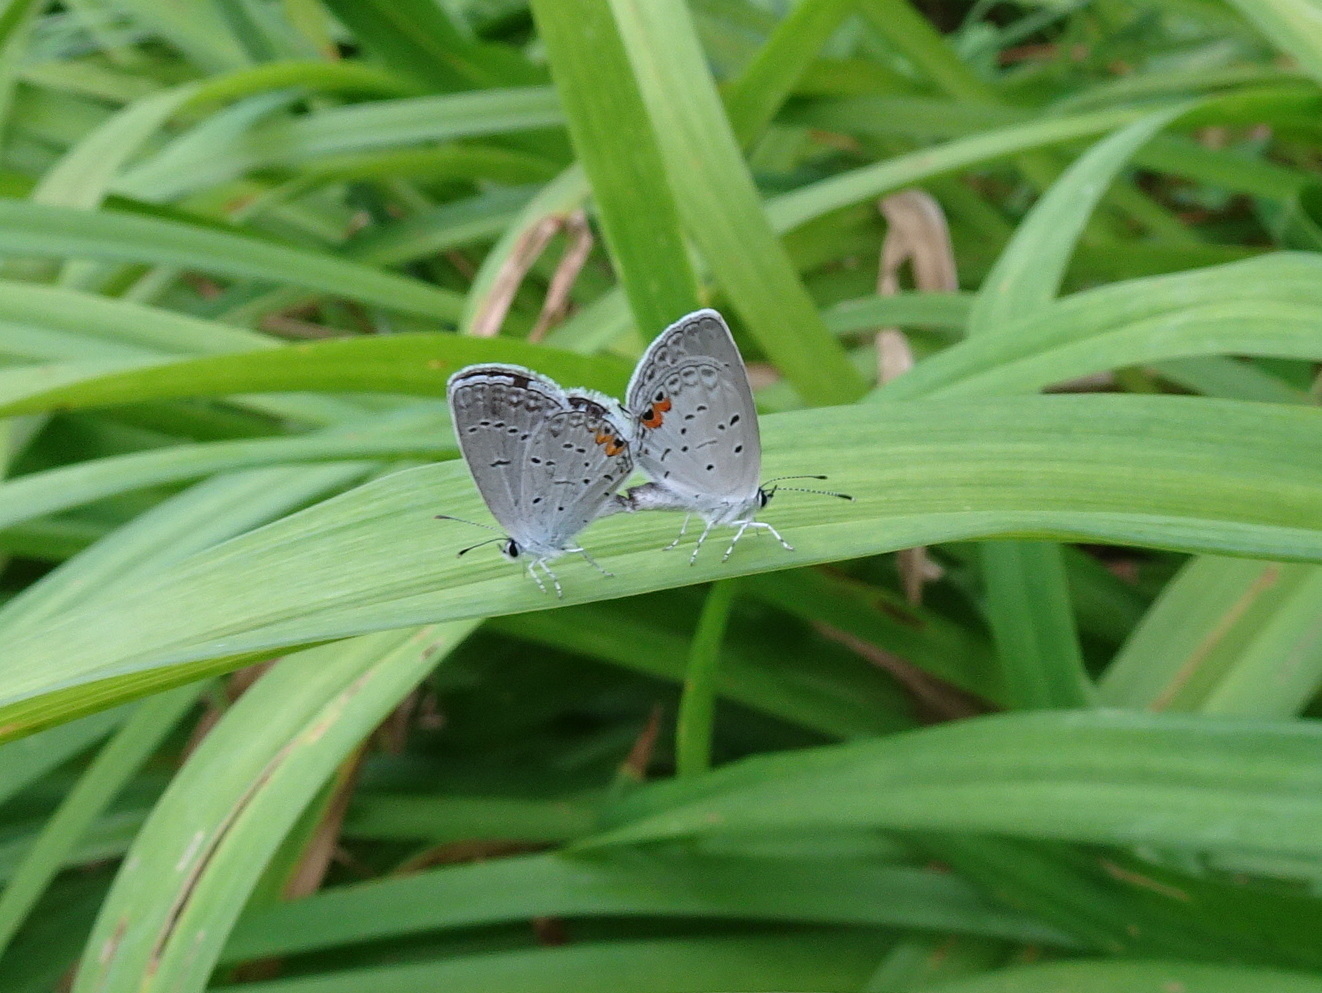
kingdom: Animalia
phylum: Arthropoda
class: Insecta
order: Lepidoptera
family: Lycaenidae
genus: Elkalyce
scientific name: Elkalyce comyntas
